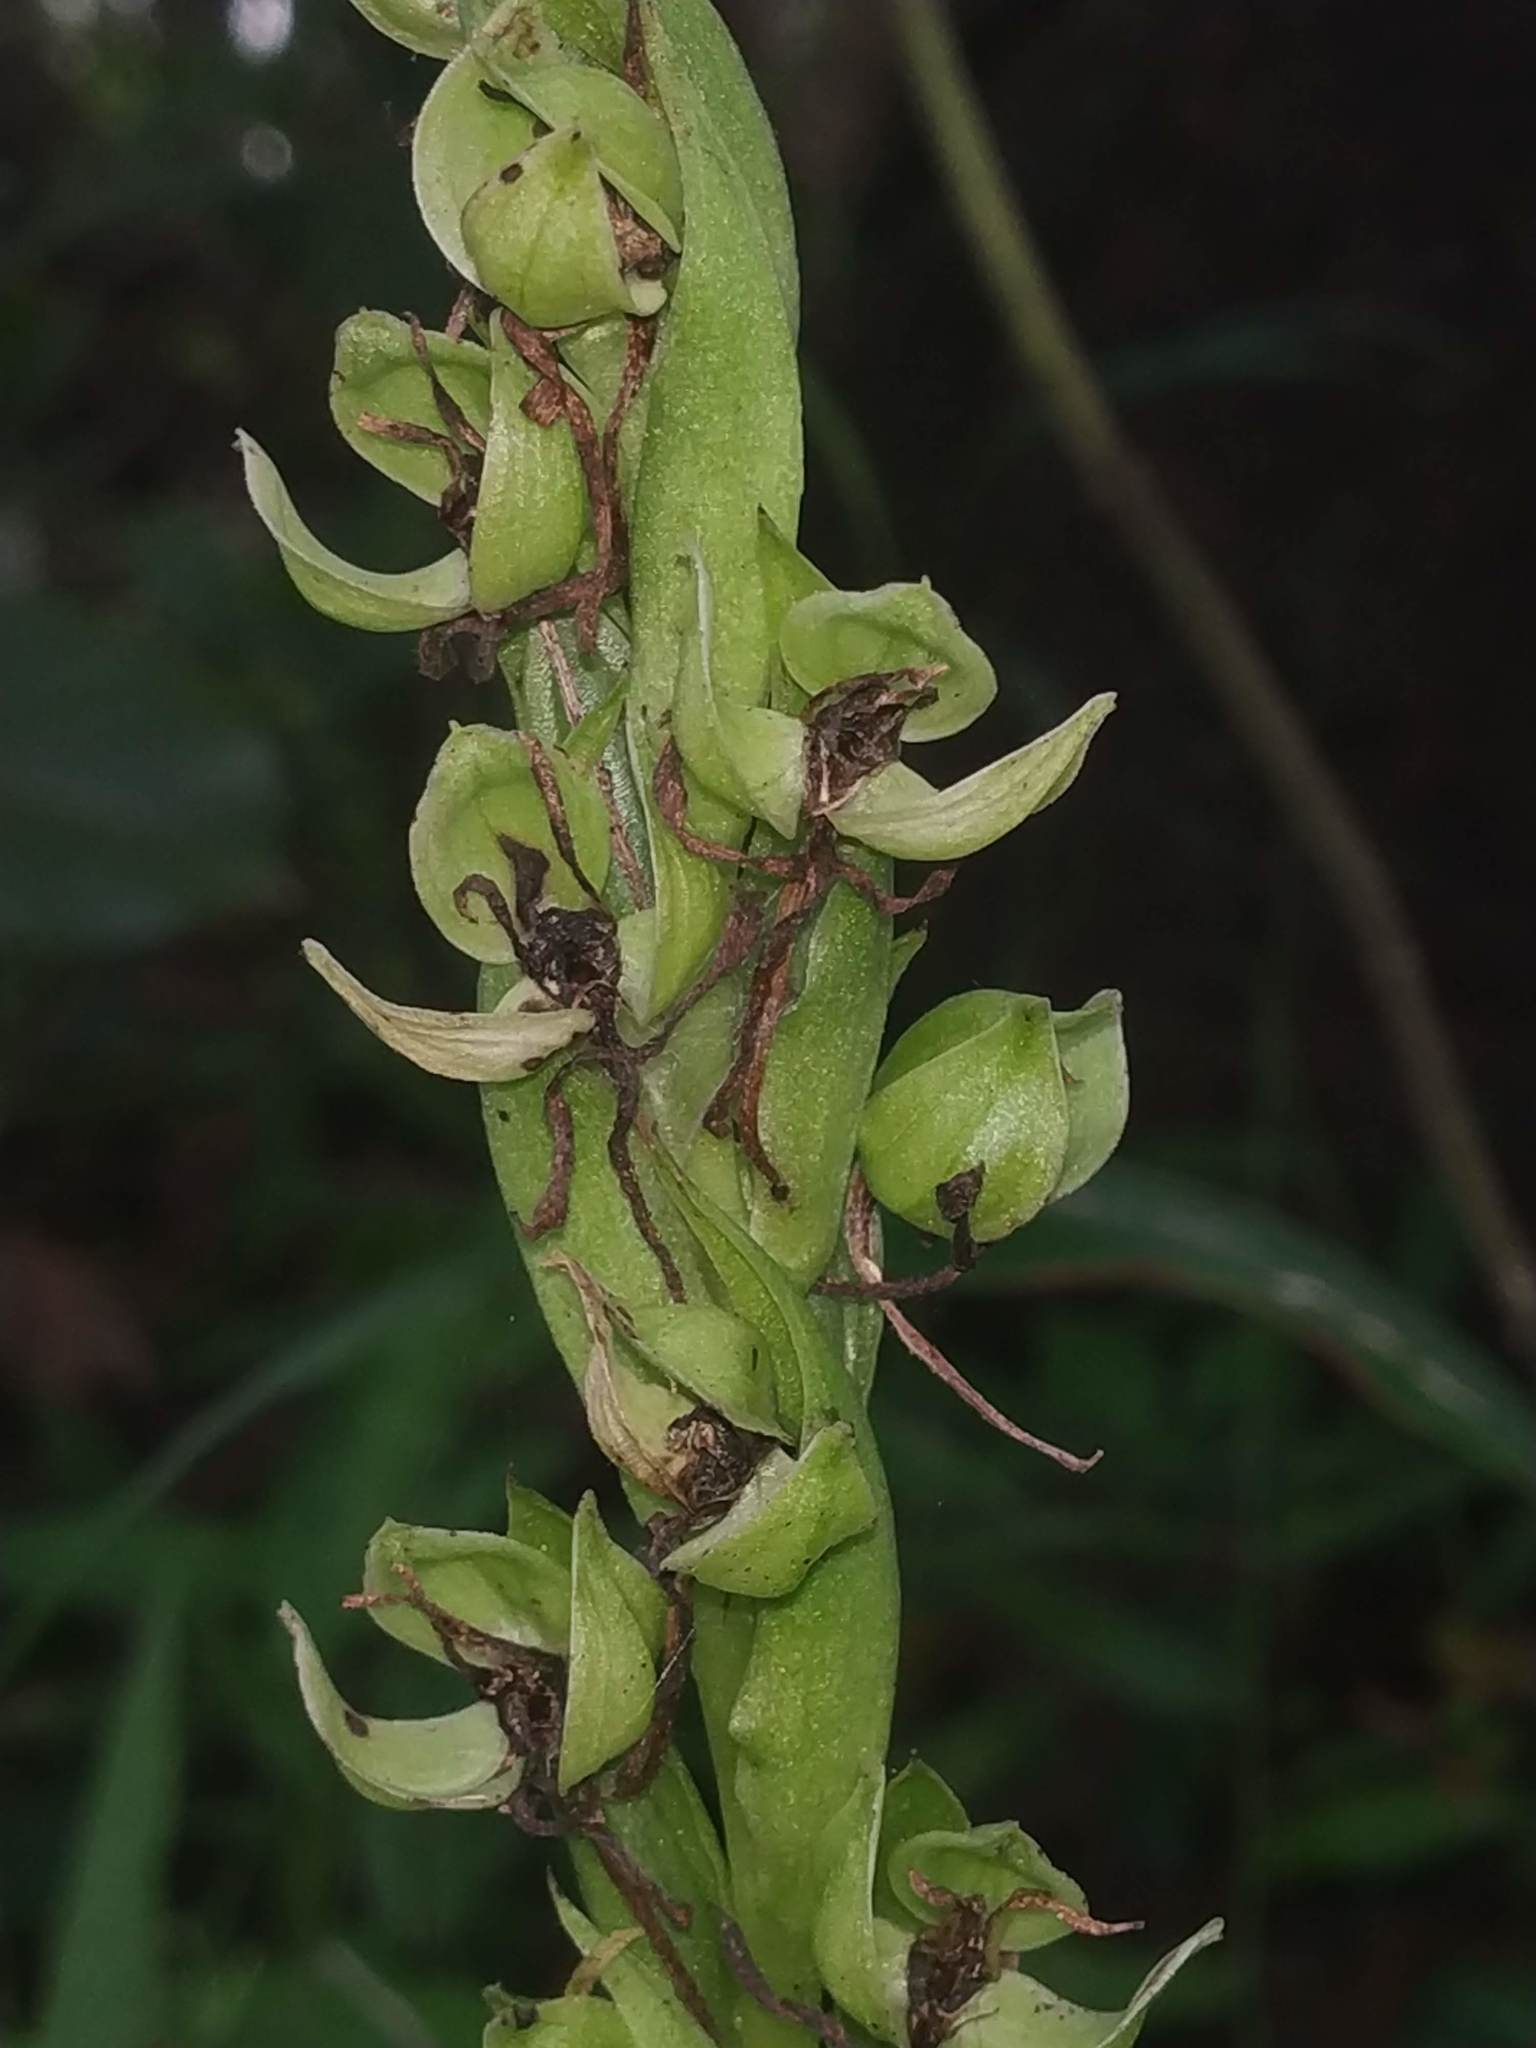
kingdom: Plantae
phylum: Tracheophyta
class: Liliopsida
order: Asparagales
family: Orchidaceae
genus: Habenaria
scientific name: Habenaria digitata
